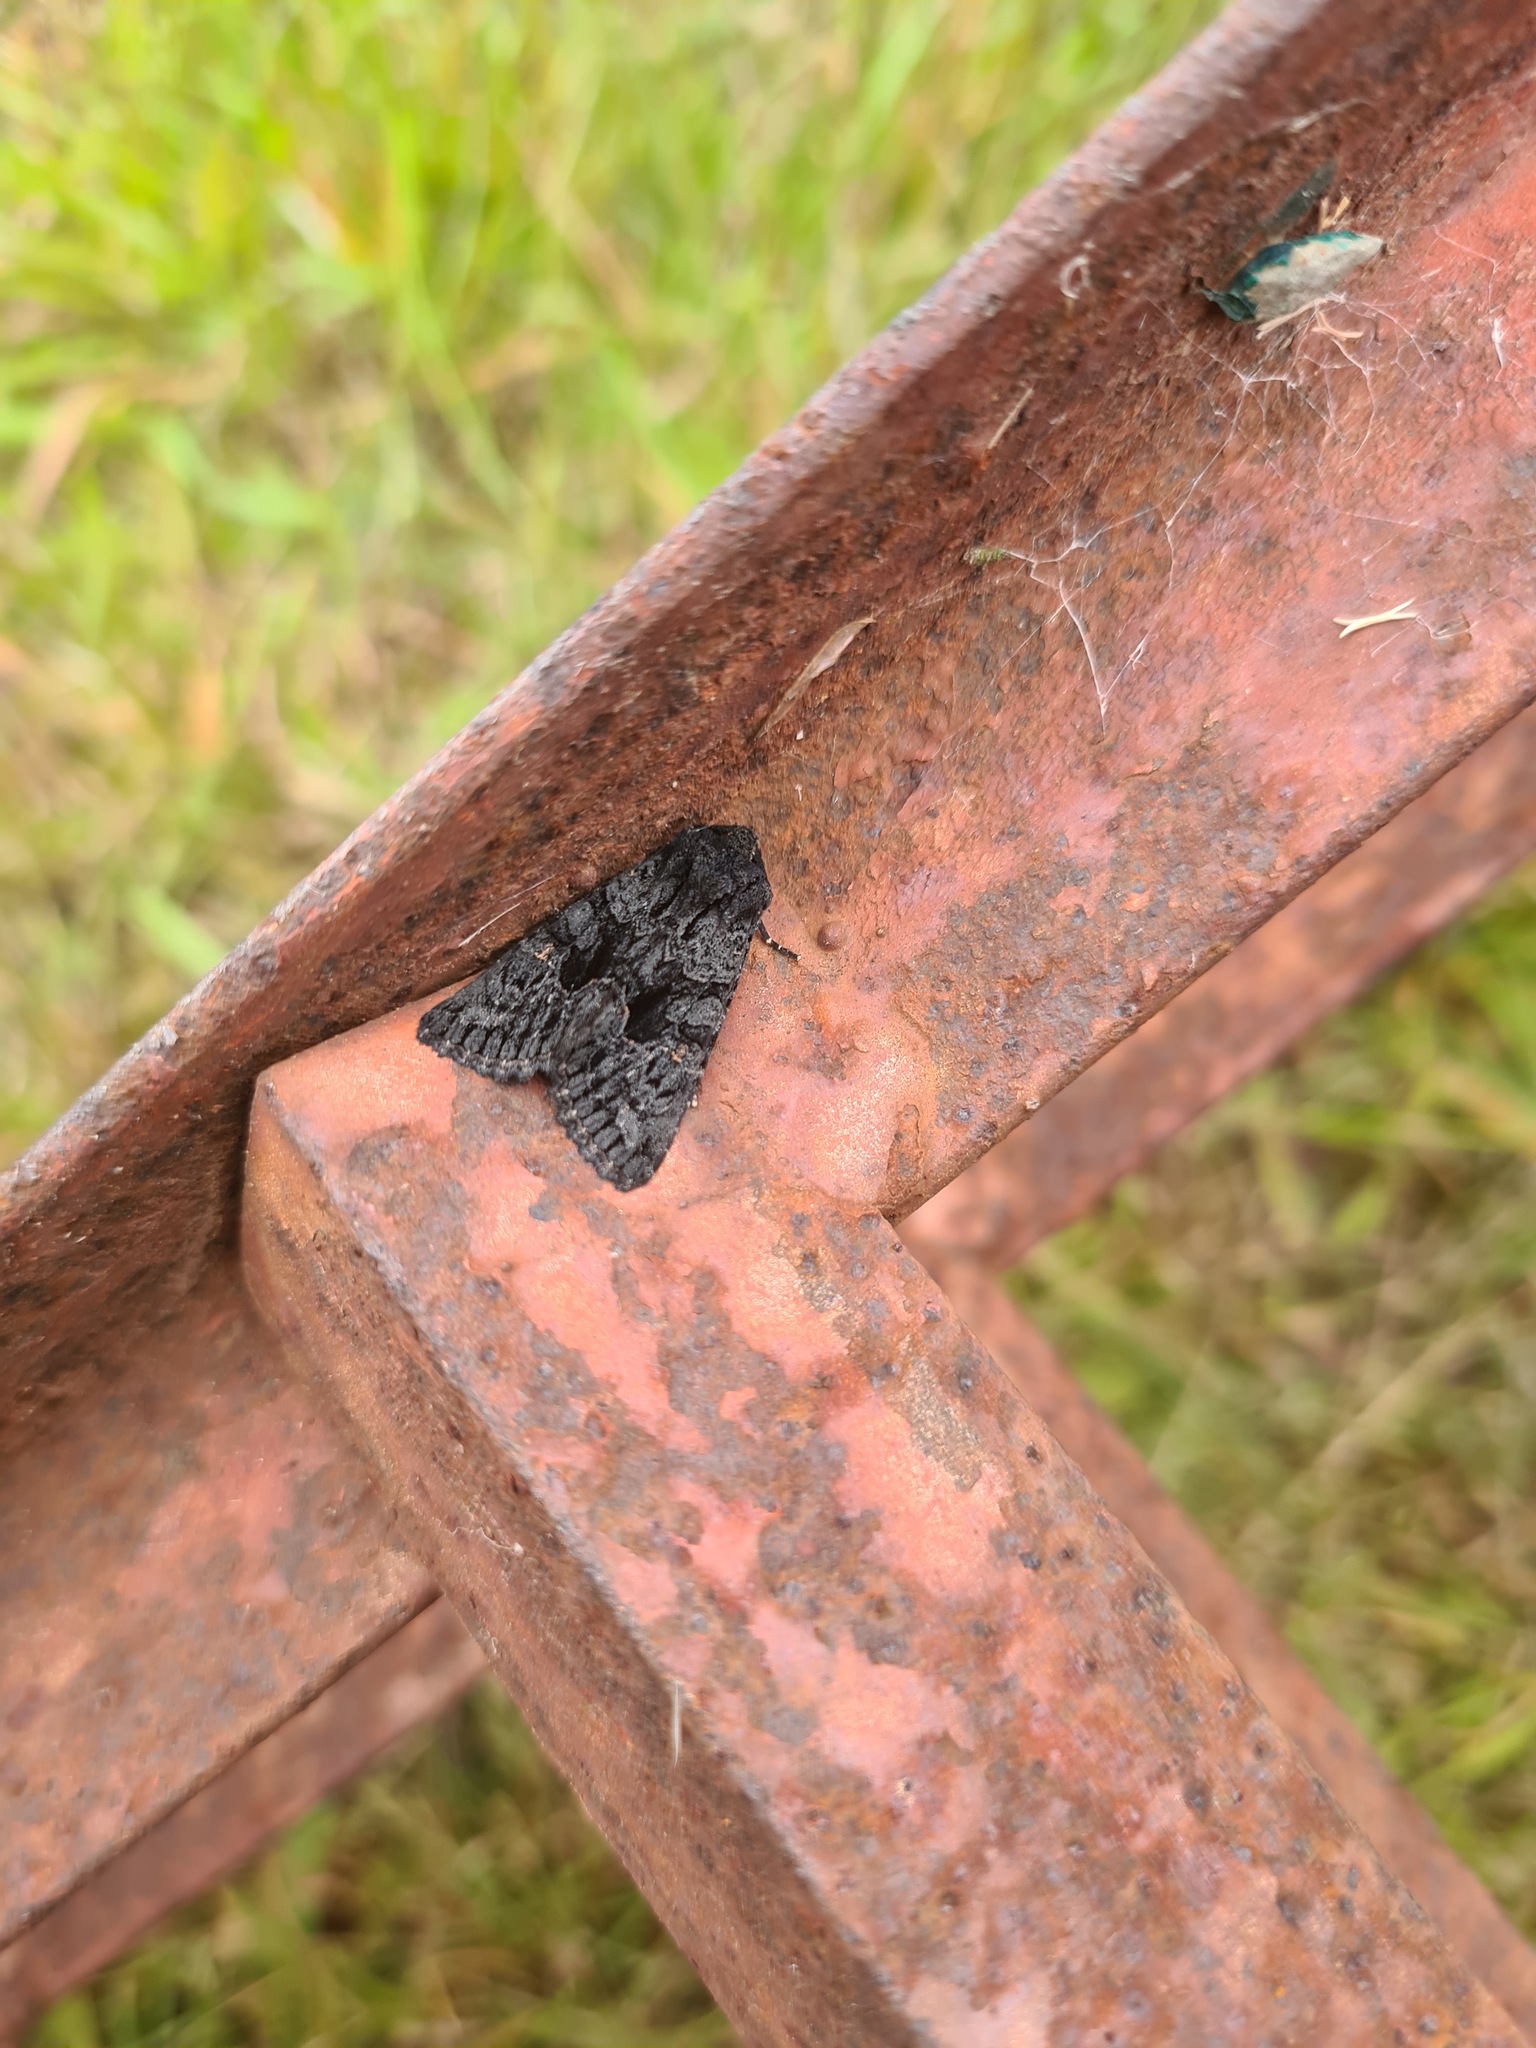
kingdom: Animalia
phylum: Arthropoda
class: Insecta
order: Lepidoptera
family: Noctuidae
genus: Neumichtis
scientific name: Neumichtis nigerrima
